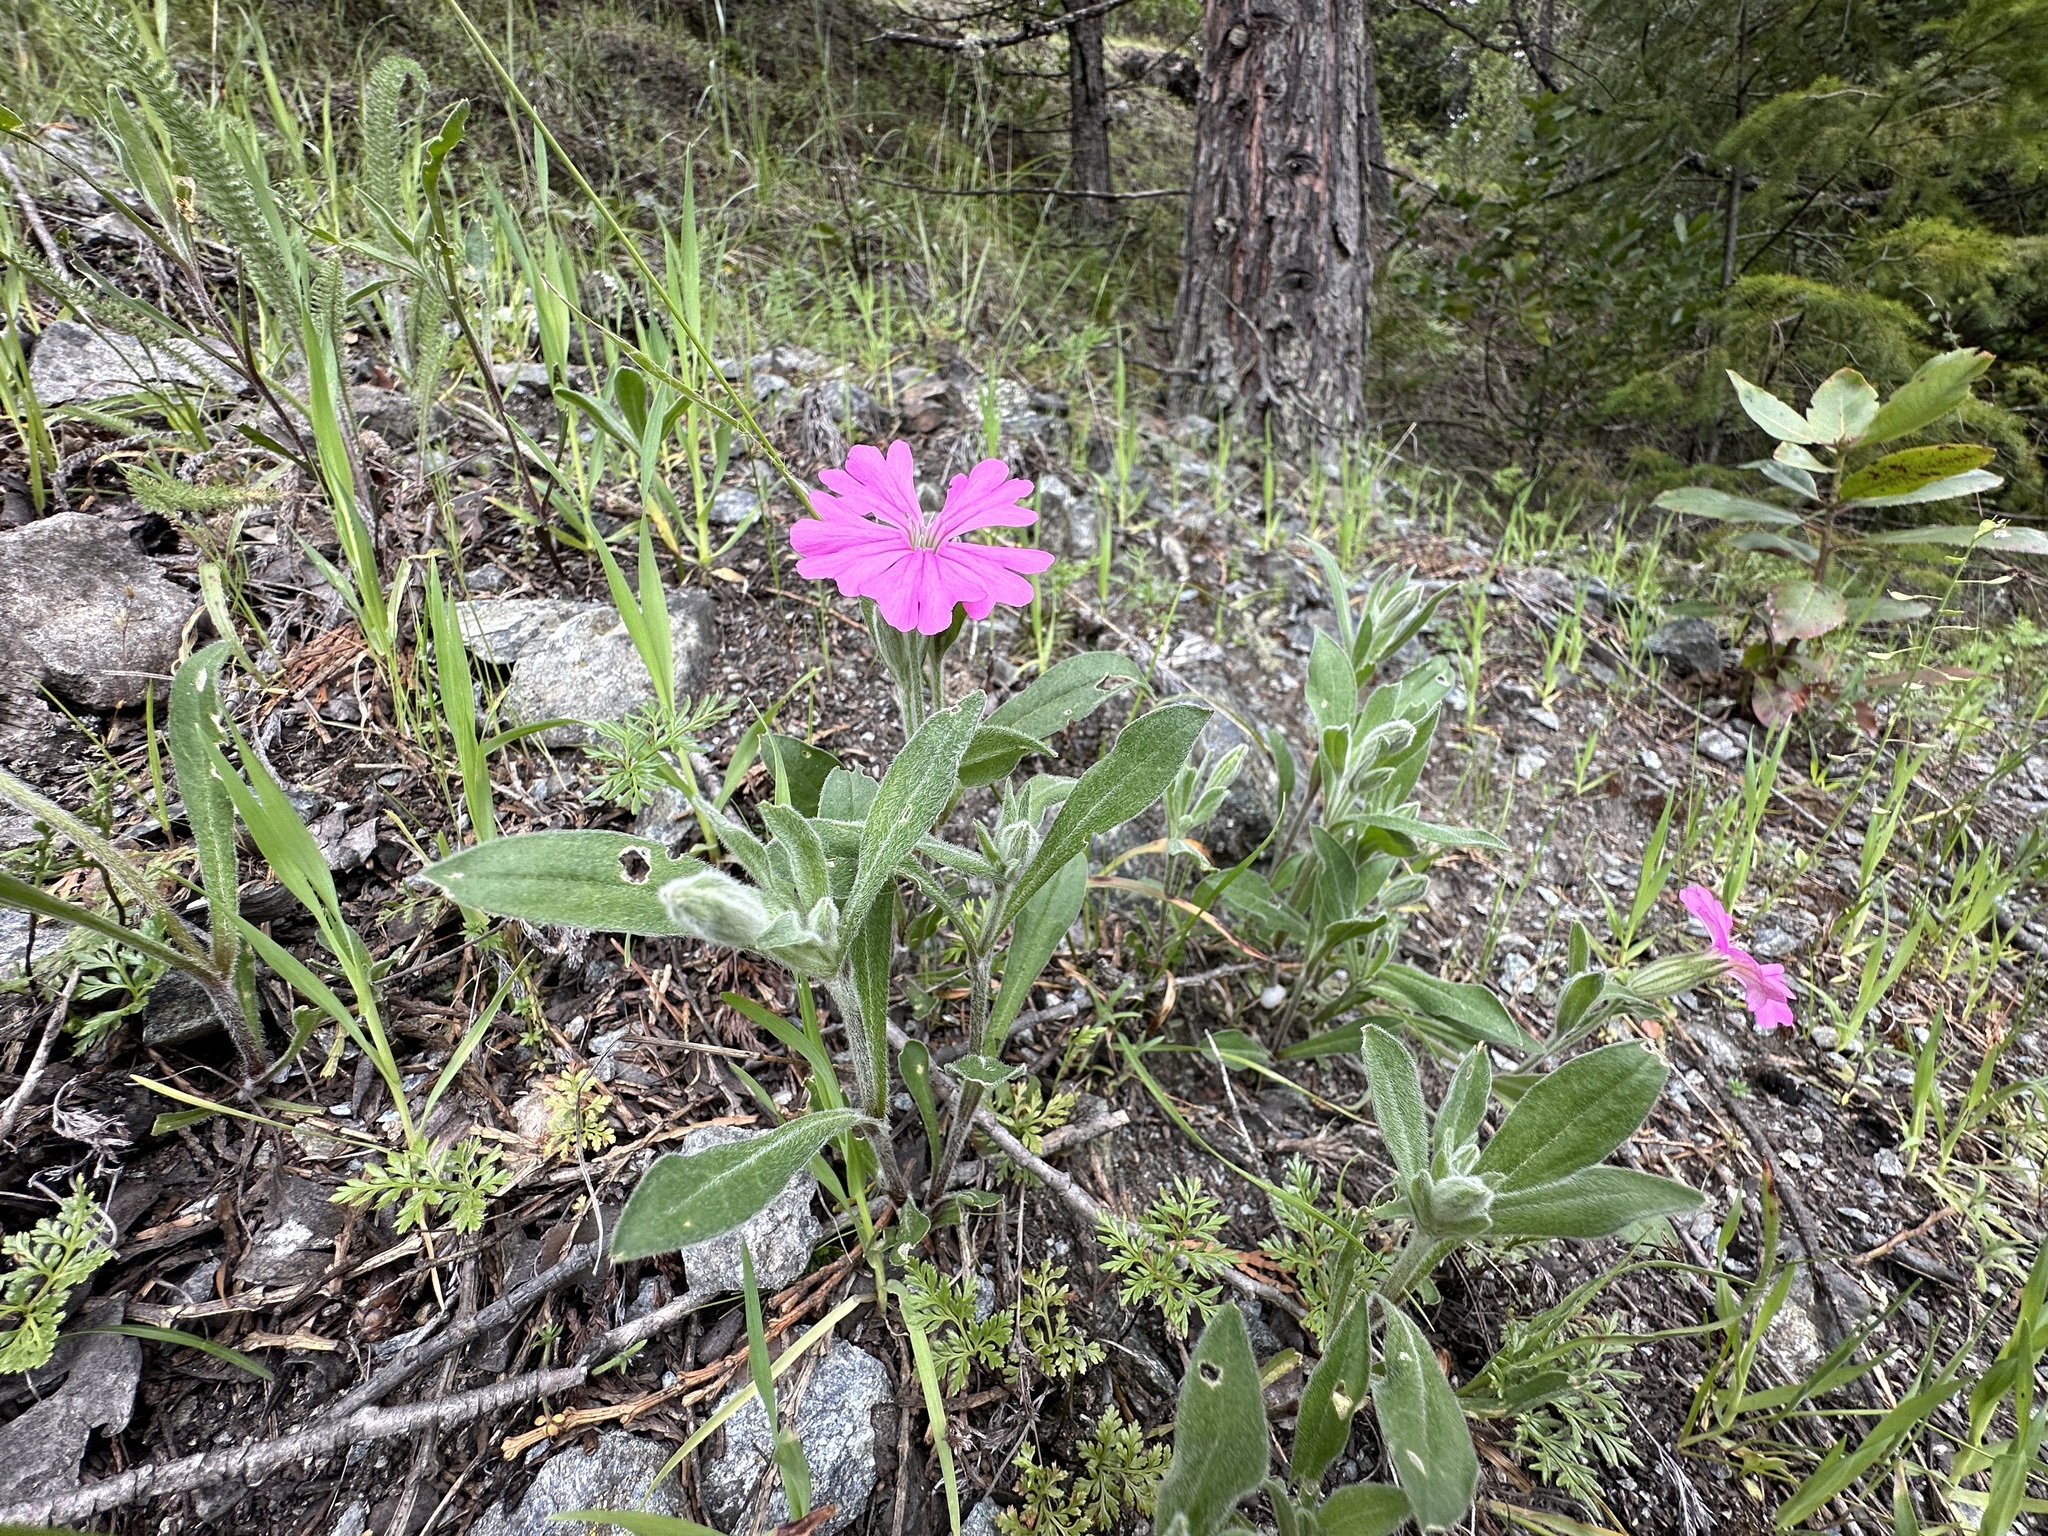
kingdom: Plantae
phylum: Tracheophyta
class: Magnoliopsida
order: Caryophyllales
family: Caryophyllaceae
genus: Silene
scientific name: Silene hookeri
